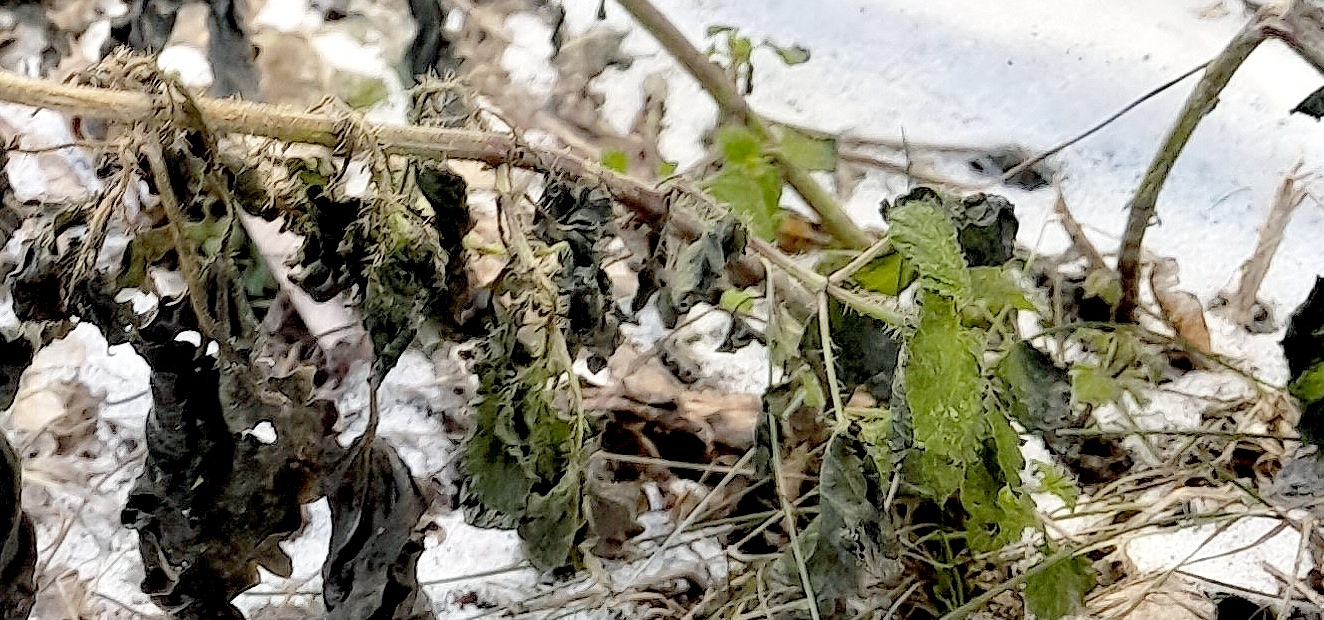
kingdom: Plantae
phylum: Tracheophyta
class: Magnoliopsida
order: Rosales
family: Urticaceae
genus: Urtica
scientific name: Urtica dioica
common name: Common nettle
